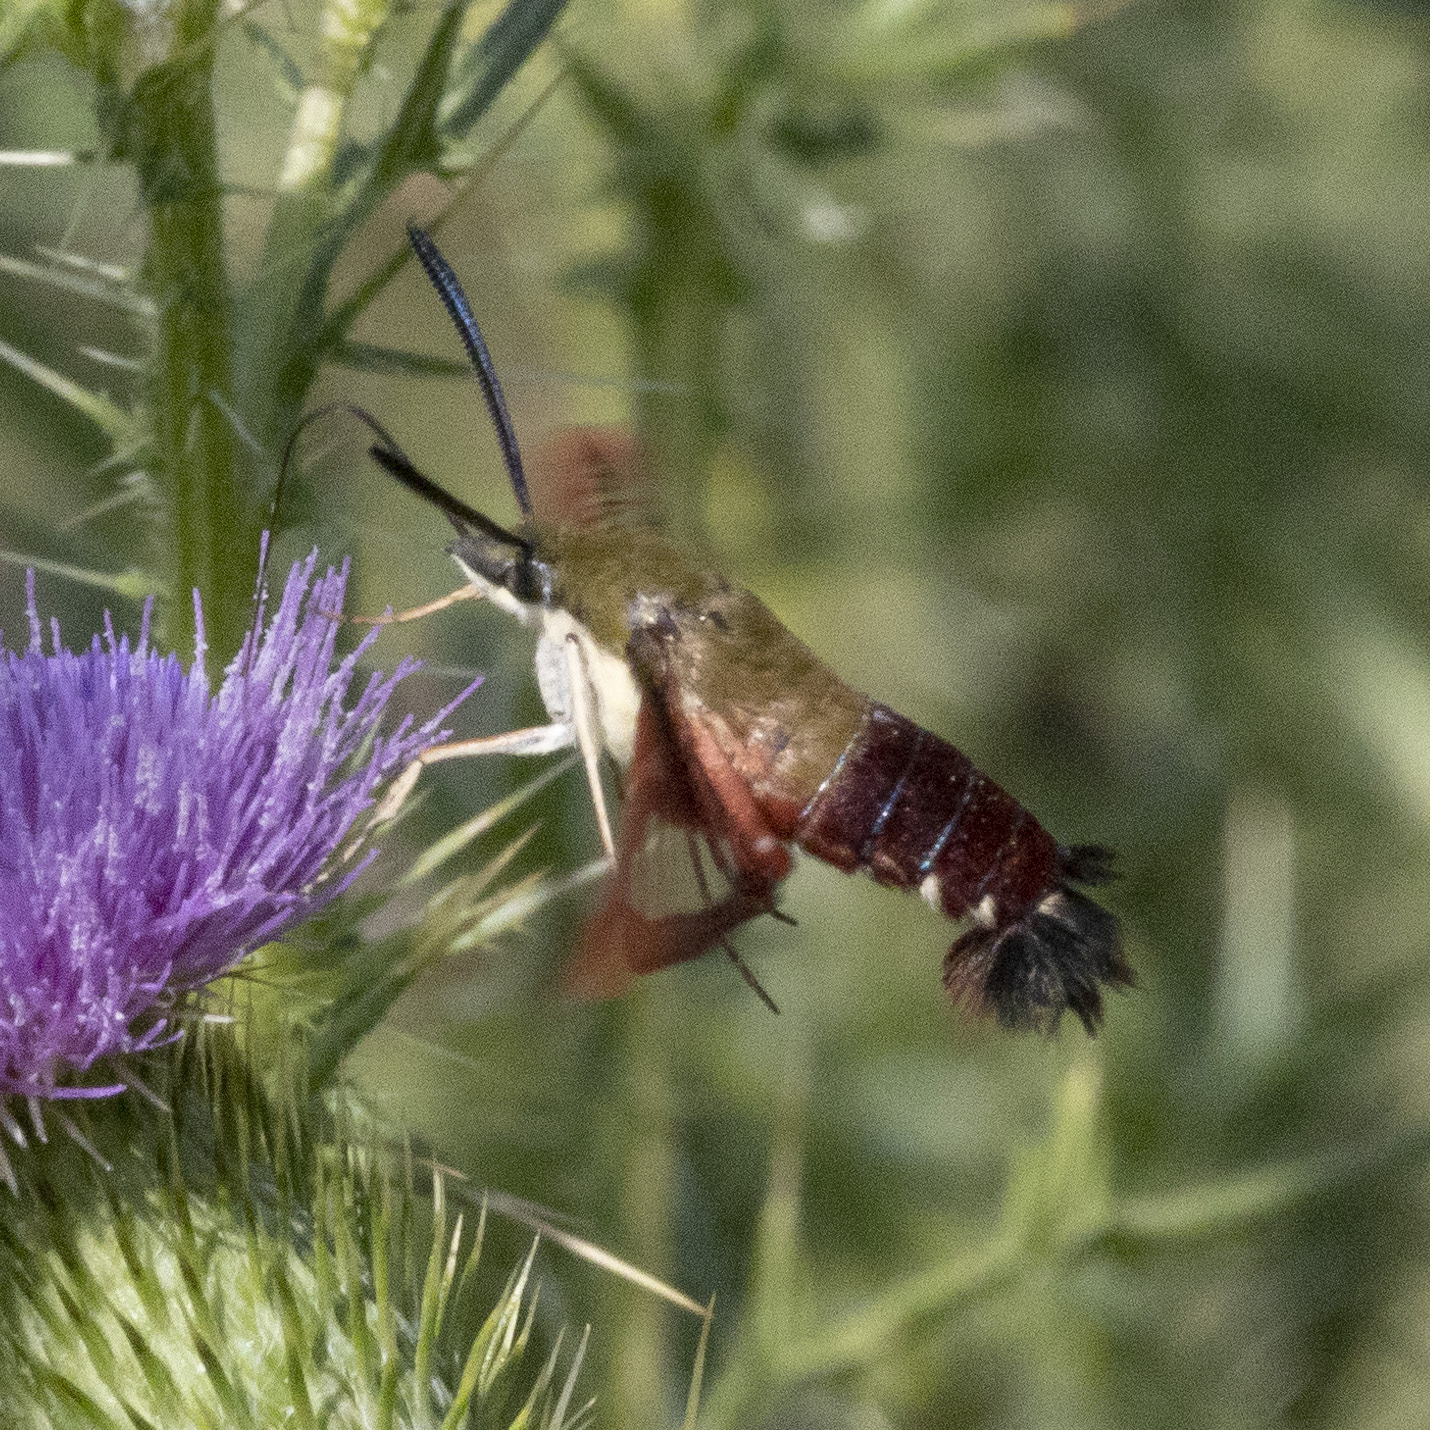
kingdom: Animalia
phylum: Arthropoda
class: Insecta
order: Lepidoptera
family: Sphingidae
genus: Hemaris
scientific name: Hemaris thysbe
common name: Common clear-wing
